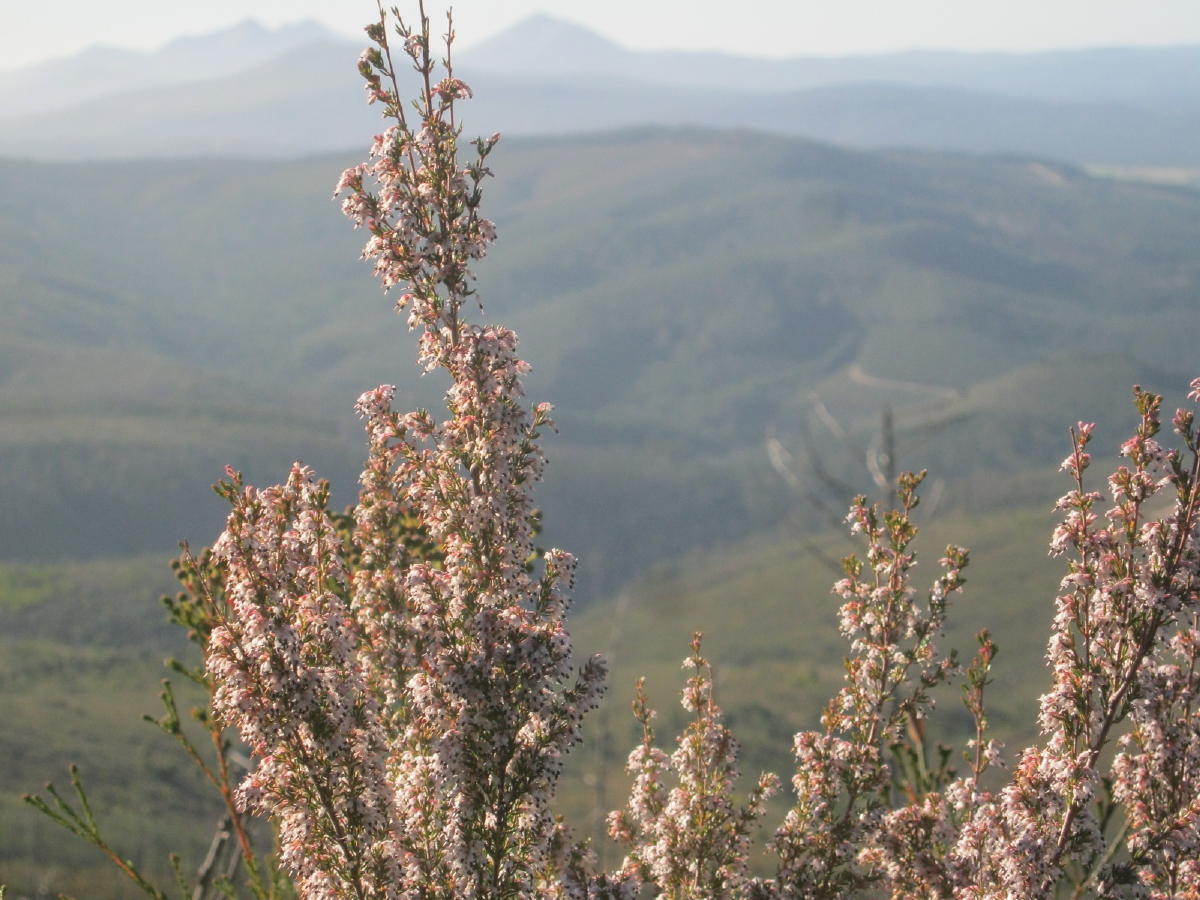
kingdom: Plantae
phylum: Tracheophyta
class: Magnoliopsida
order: Ericales
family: Ericaceae
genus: Erica
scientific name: Erica fuscescens
